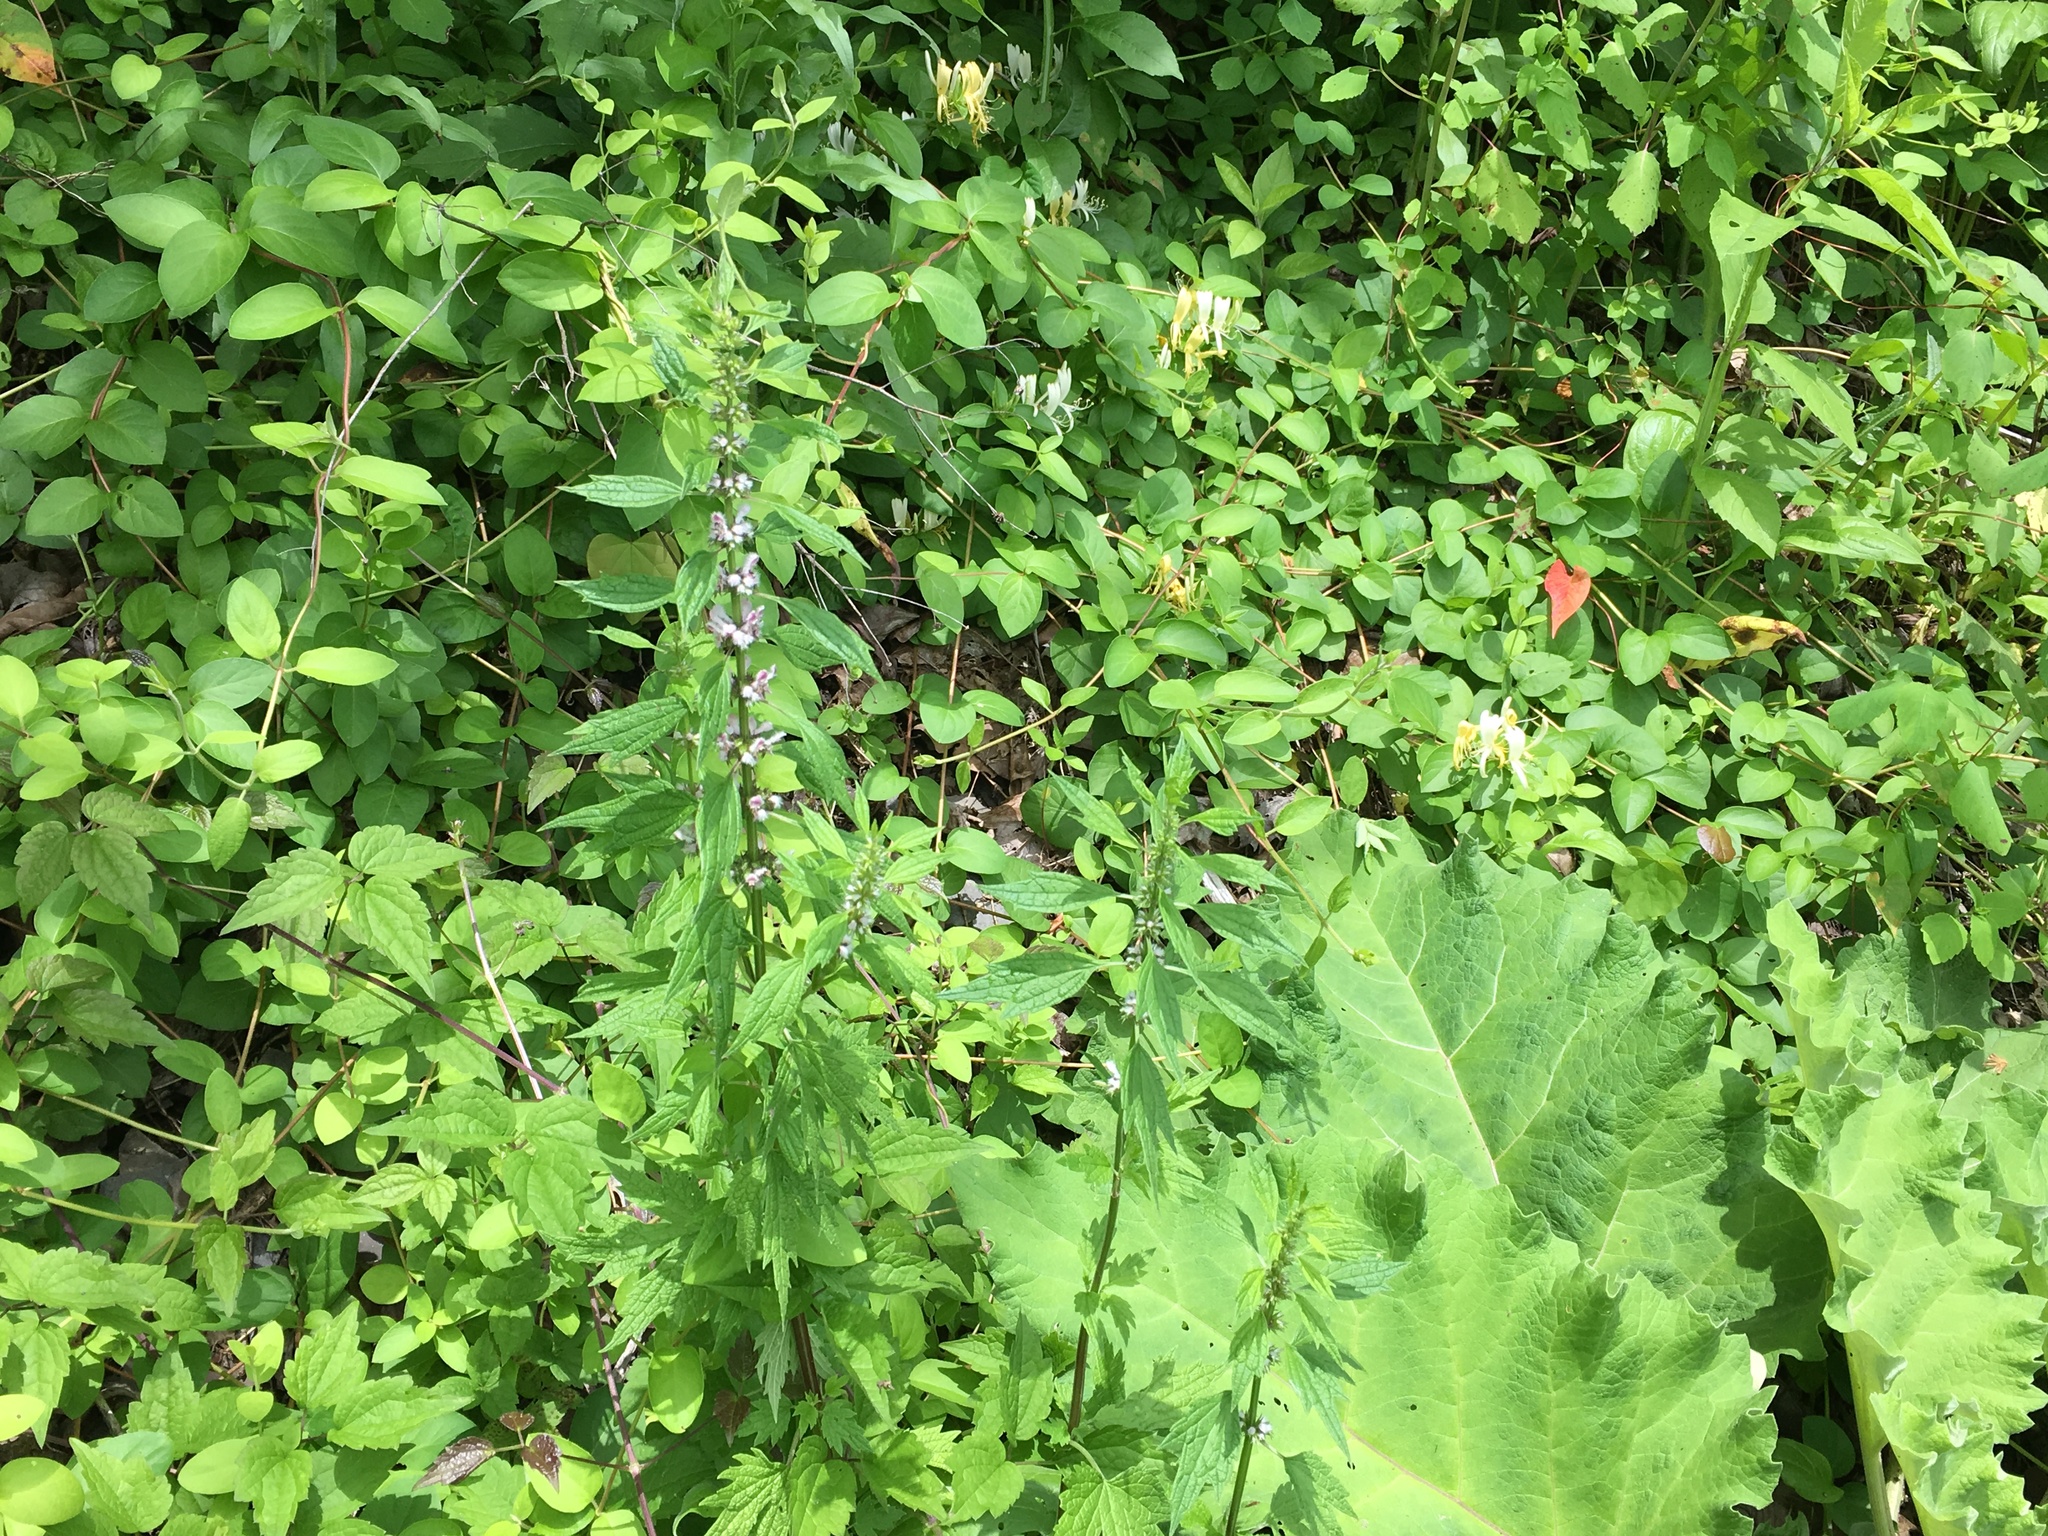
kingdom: Plantae
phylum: Tracheophyta
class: Magnoliopsida
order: Lamiales
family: Lamiaceae
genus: Leonurus
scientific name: Leonurus cardiaca
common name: Motherwort
